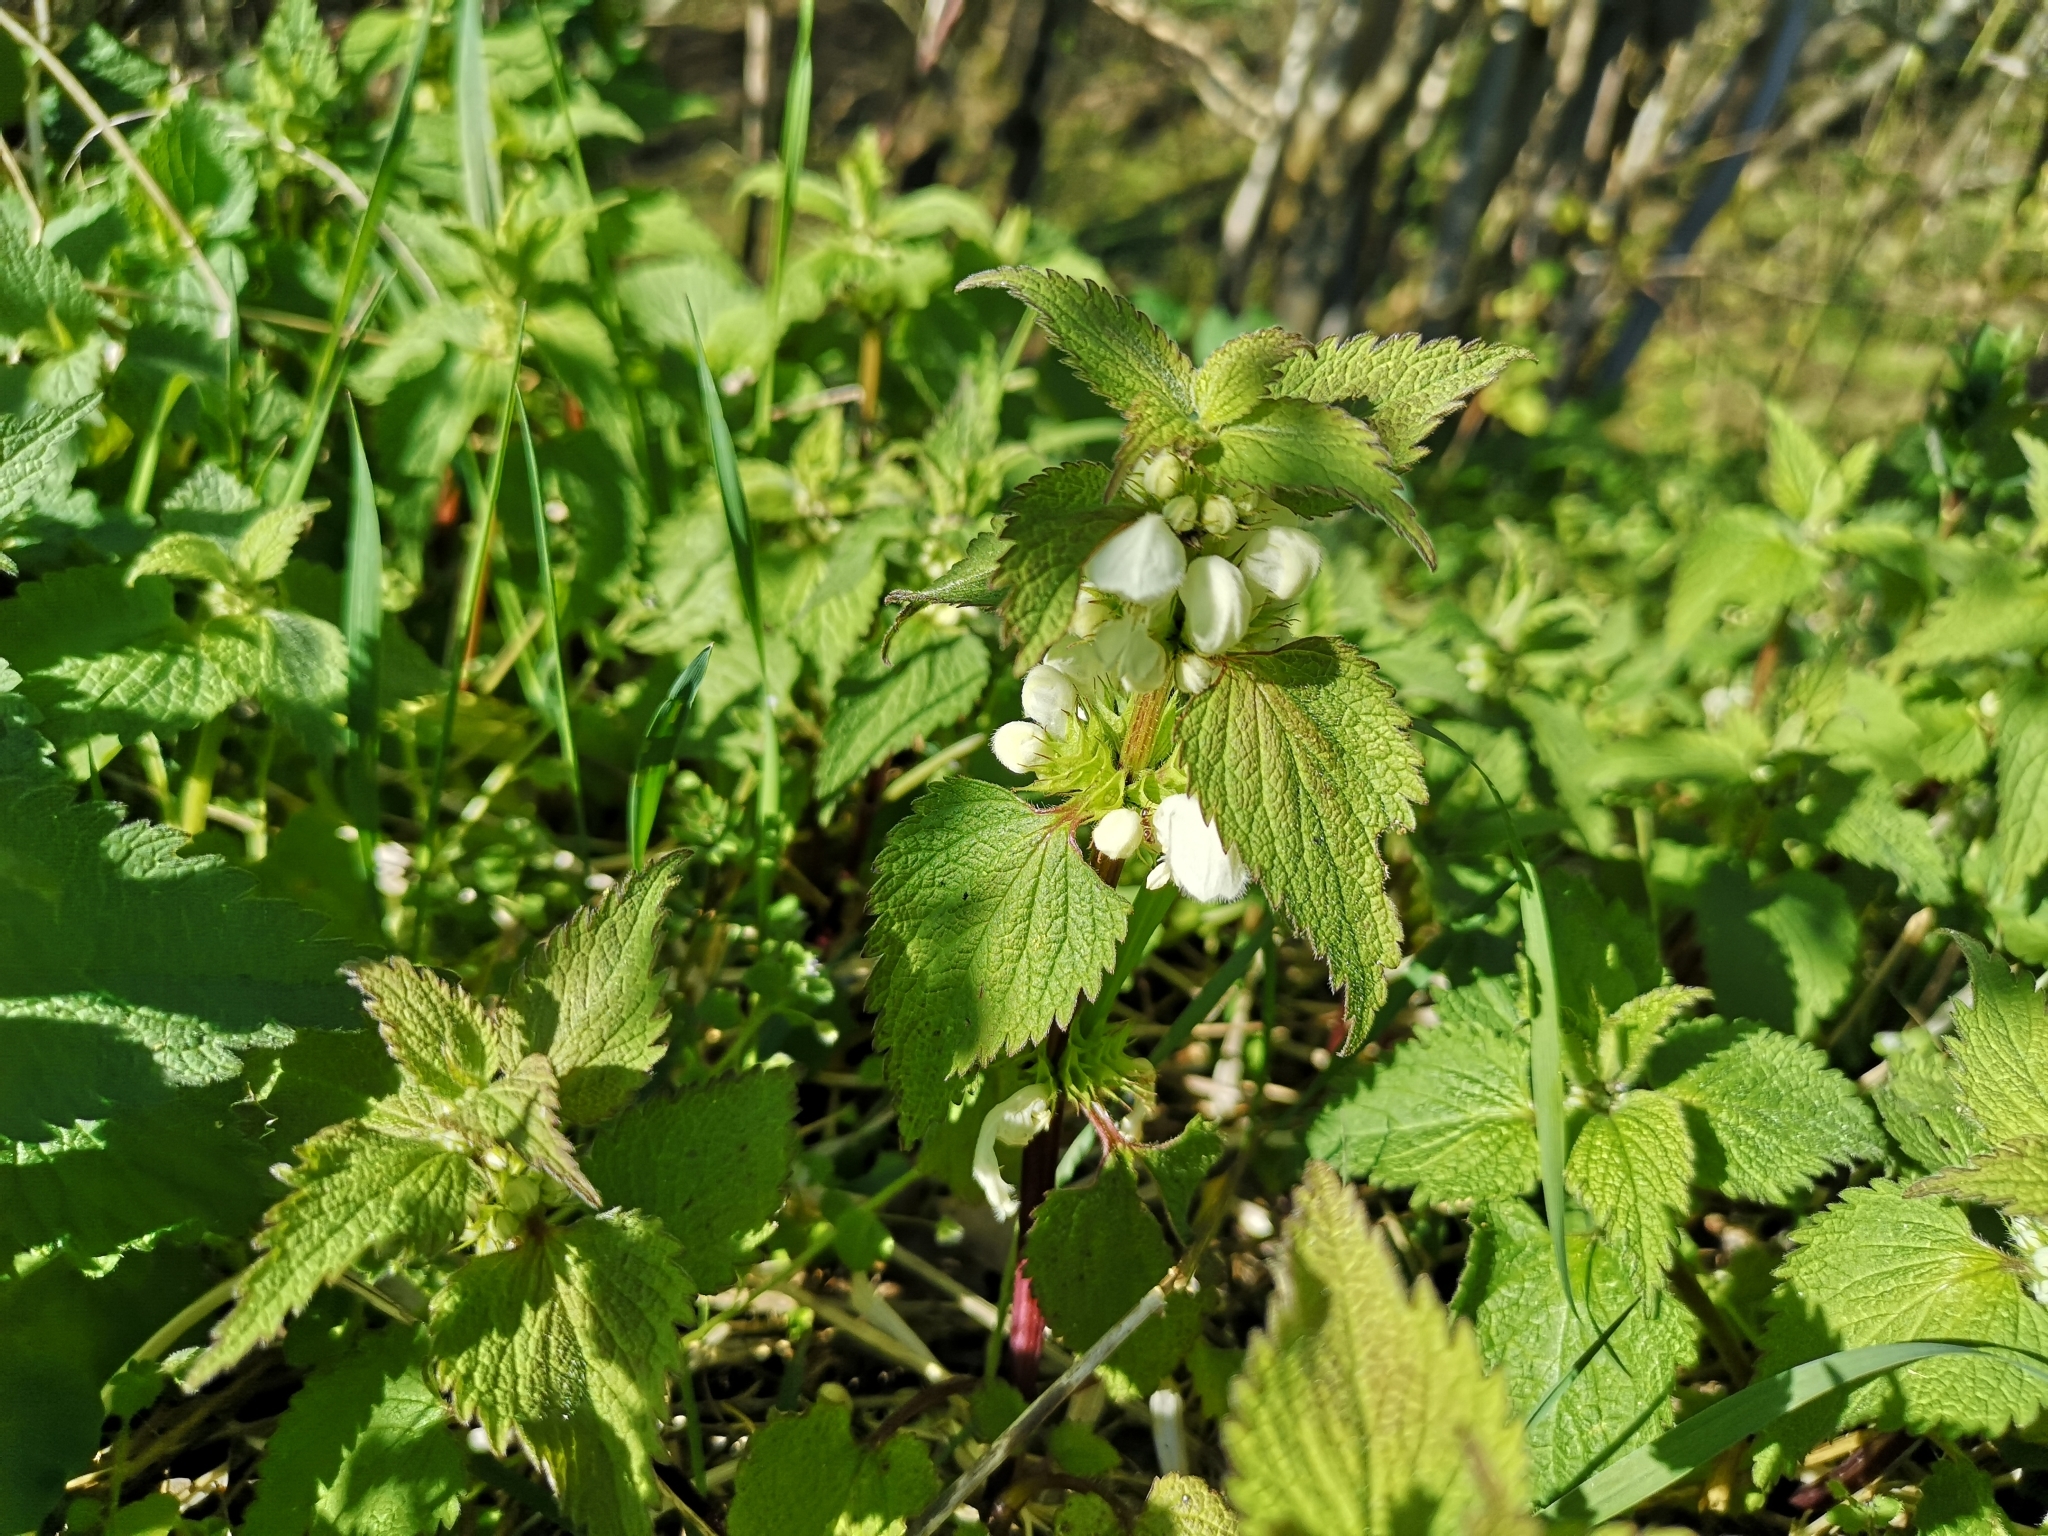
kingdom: Plantae
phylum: Tracheophyta
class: Magnoliopsida
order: Lamiales
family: Lamiaceae
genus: Lamium
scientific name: Lamium album
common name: White dead-nettle
